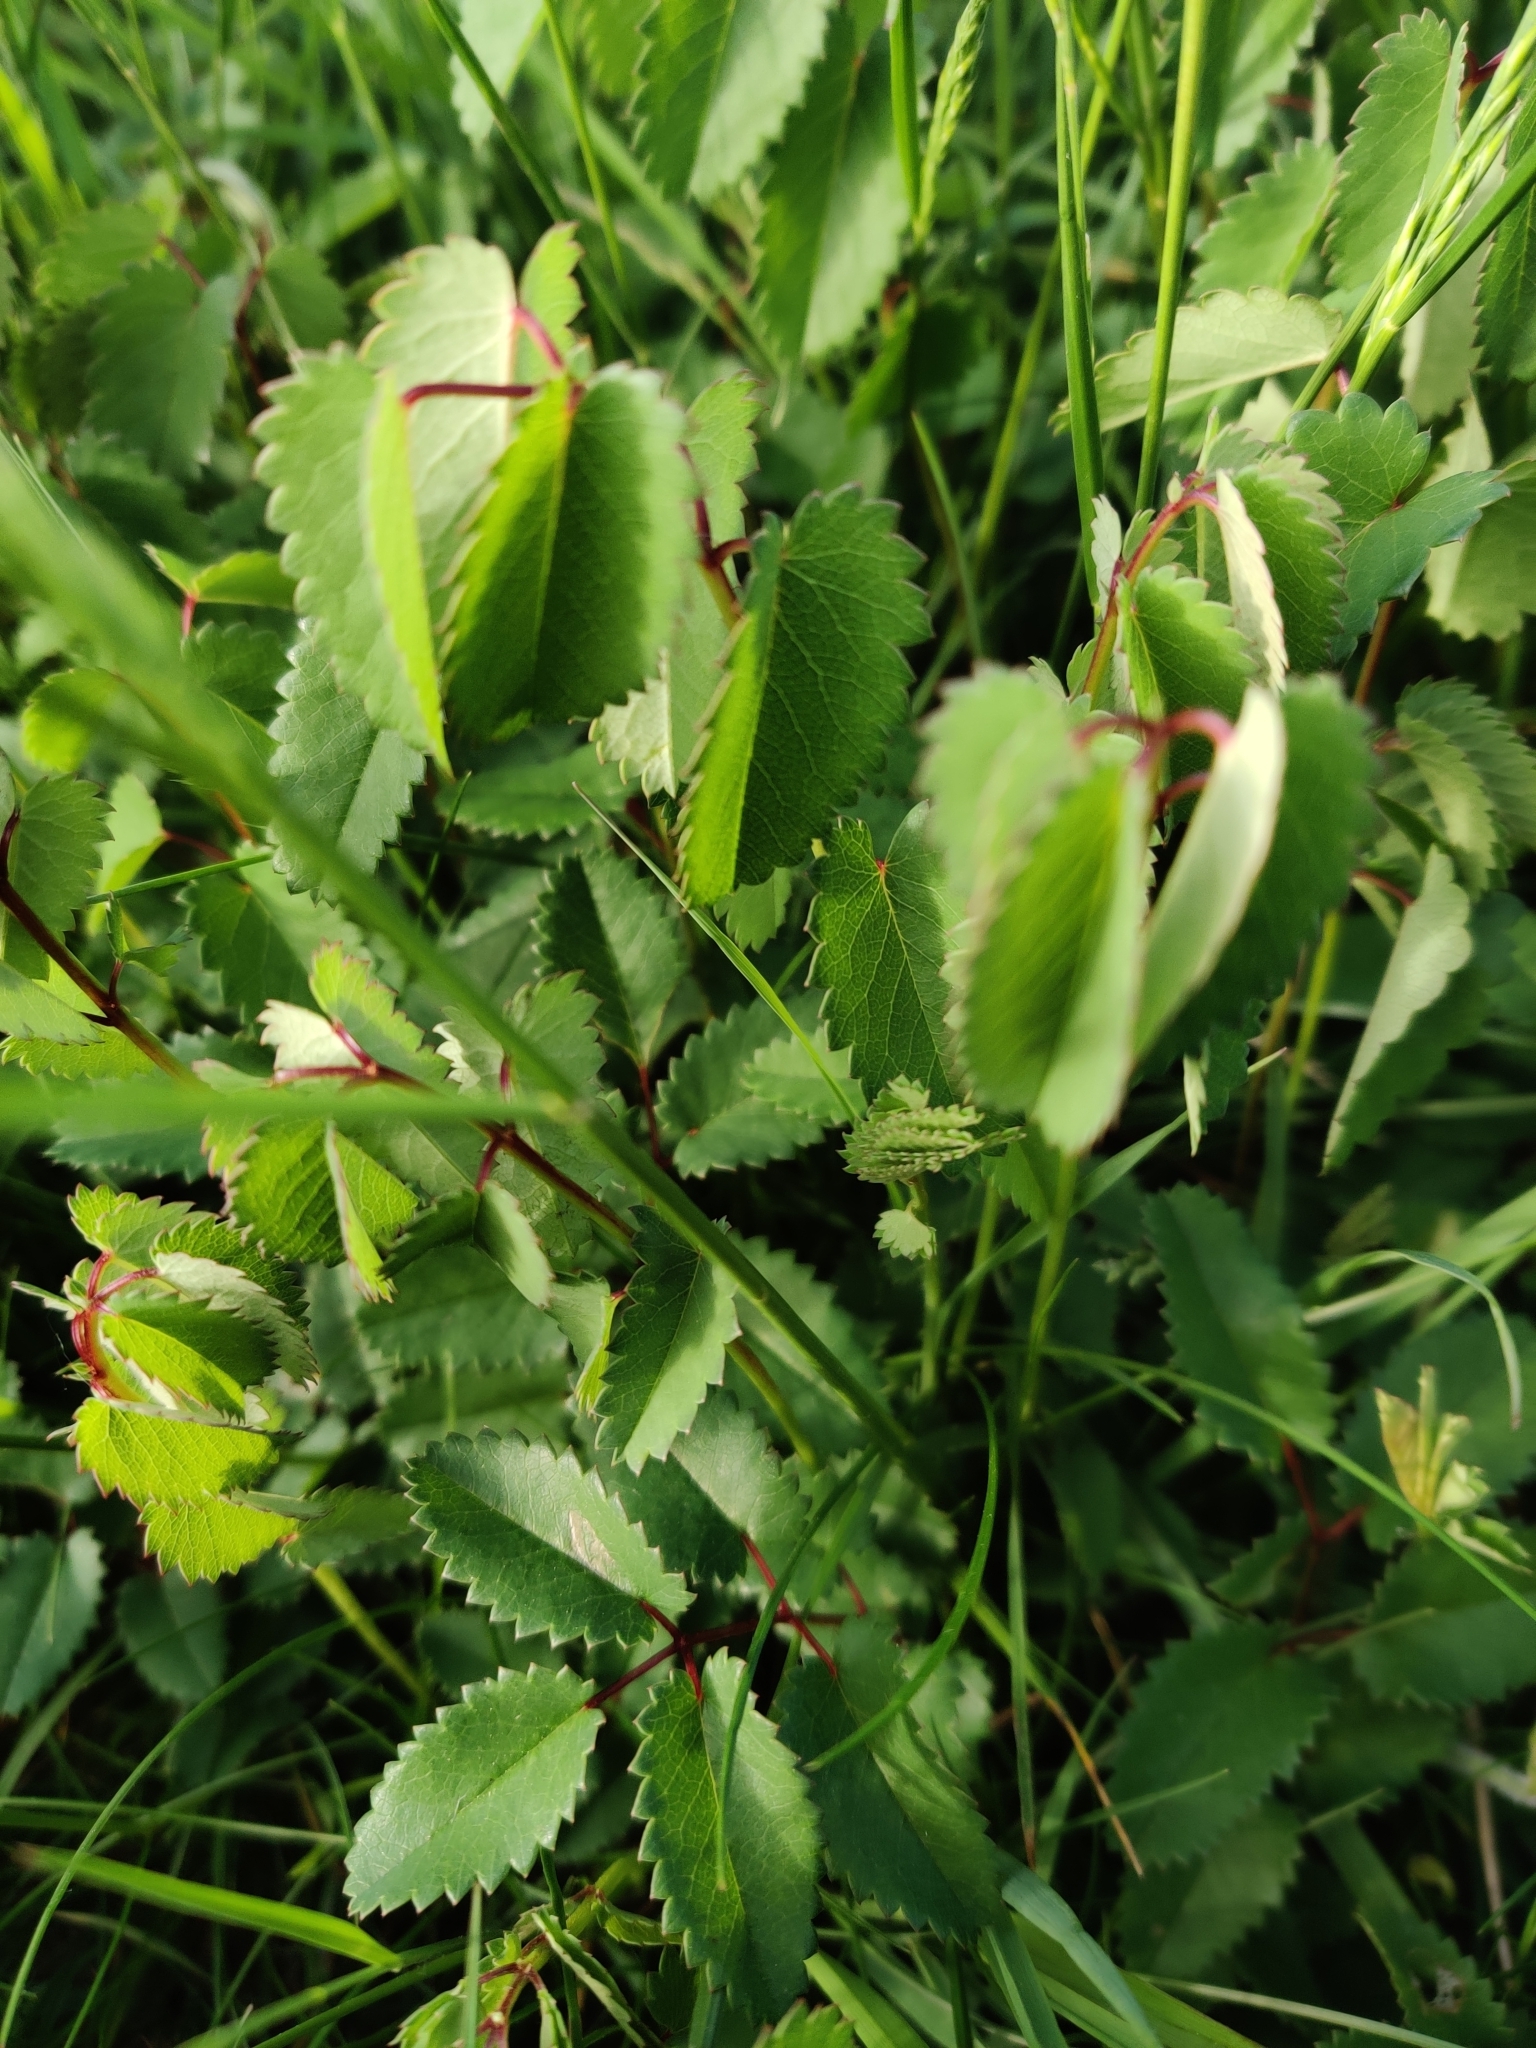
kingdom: Plantae
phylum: Tracheophyta
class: Magnoliopsida
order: Rosales
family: Rosaceae
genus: Sanguisorba
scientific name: Sanguisorba officinalis
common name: Great burnet
